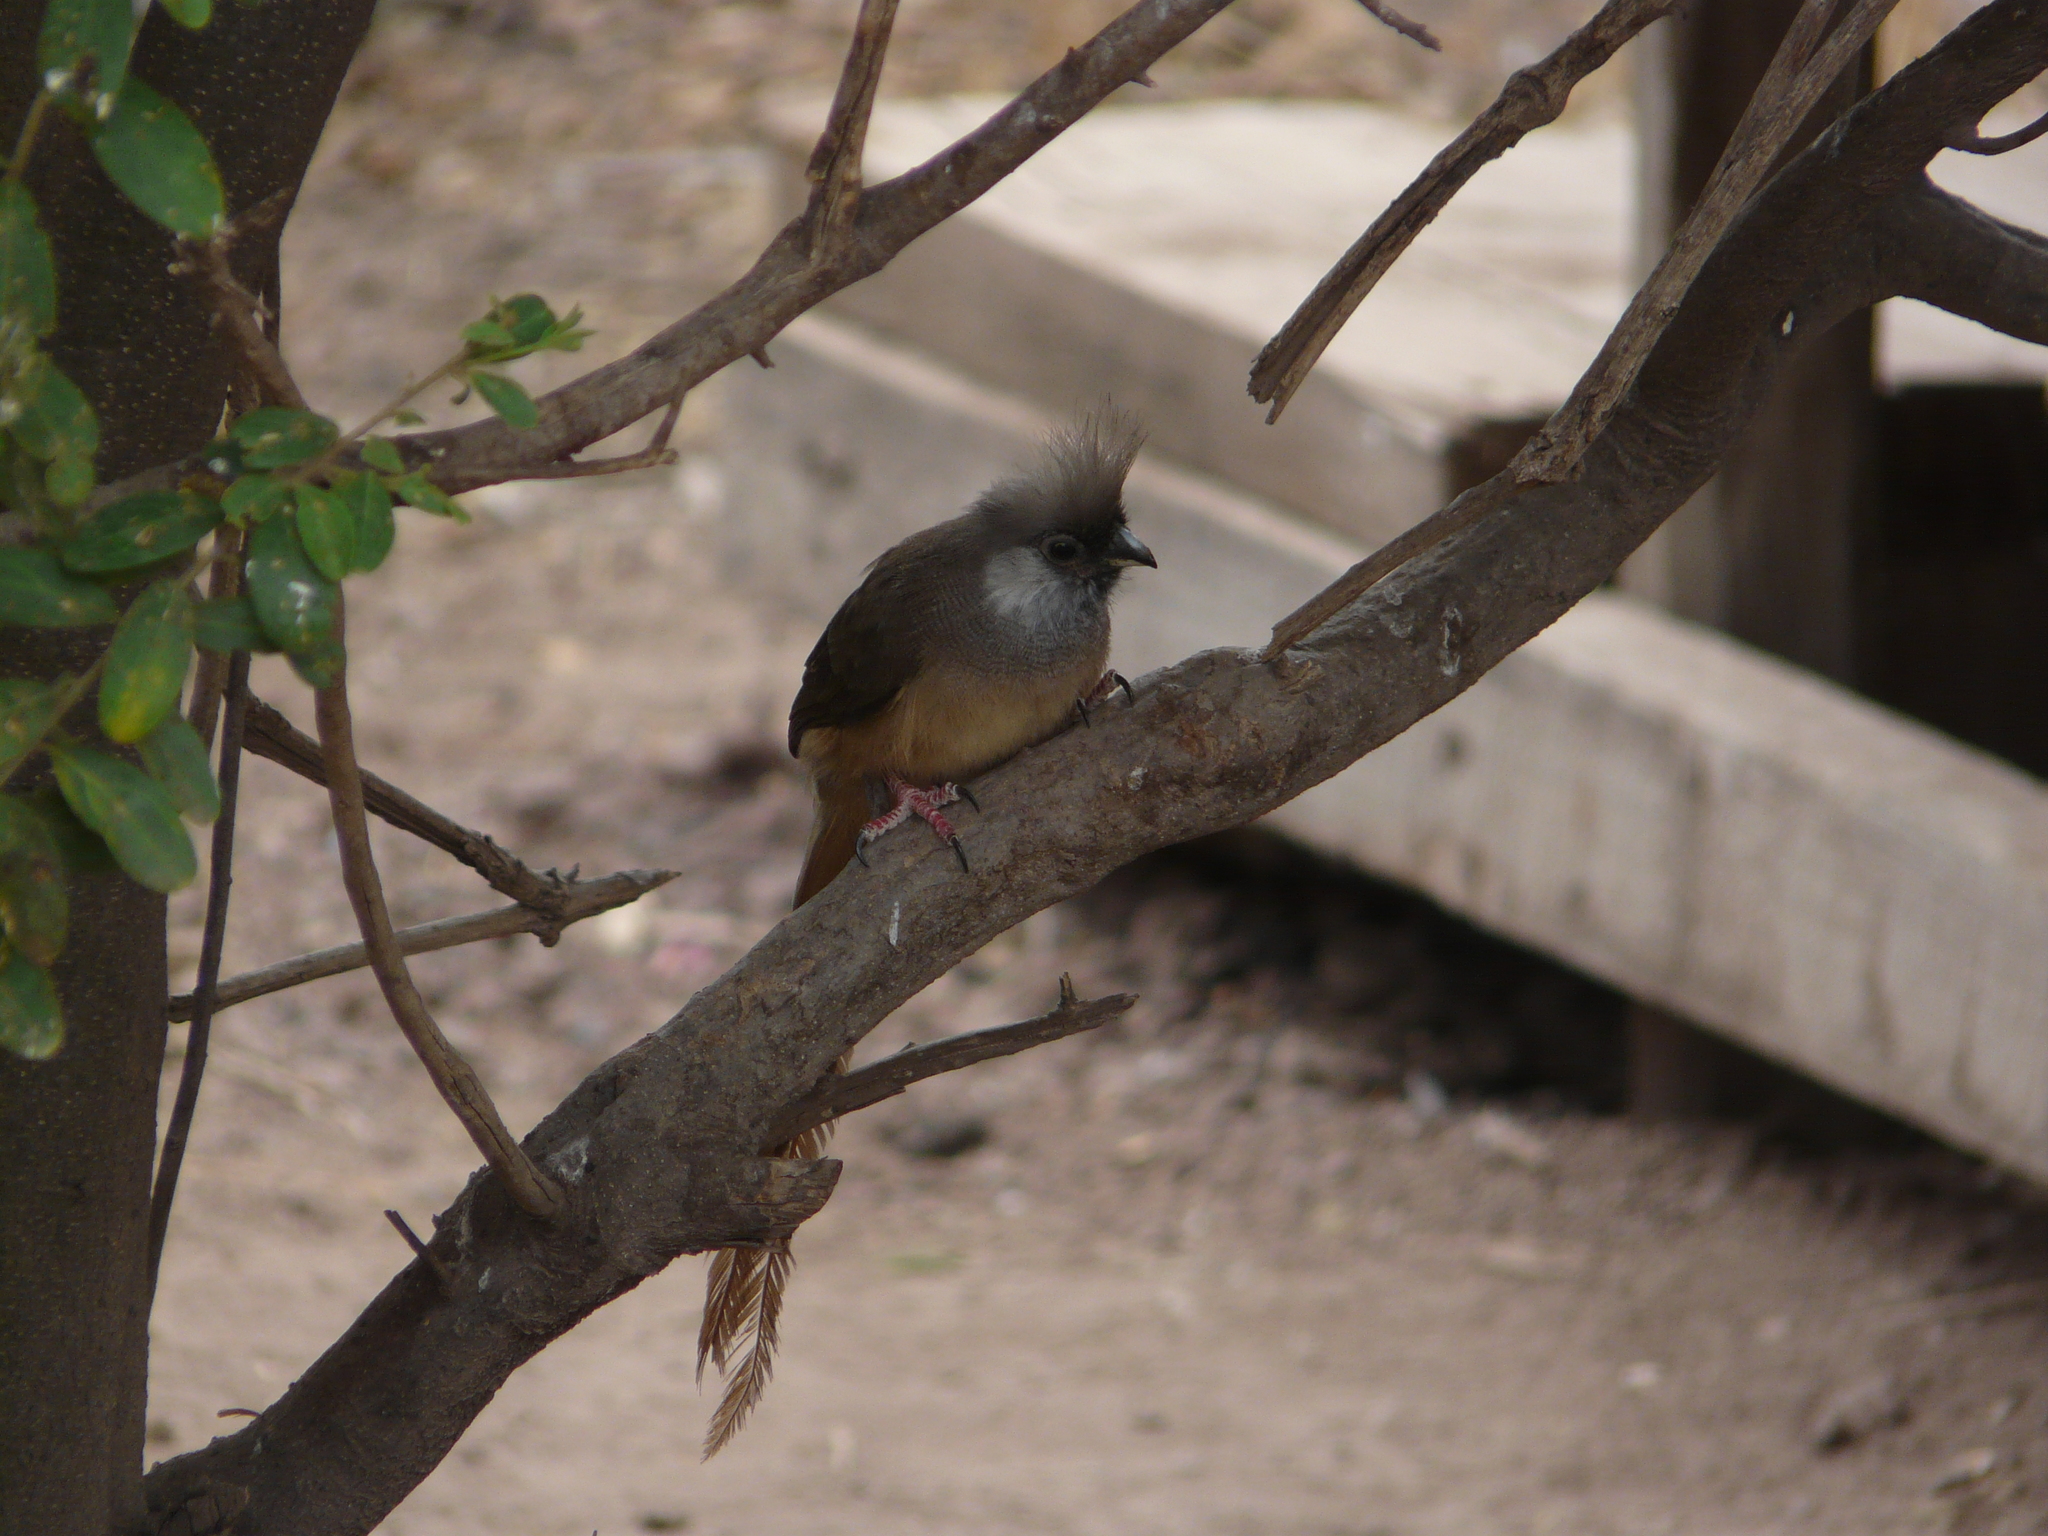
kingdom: Animalia
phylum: Chordata
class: Aves
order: Coliiformes
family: Coliidae
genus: Colius
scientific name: Colius striatus
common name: Speckled mousebird
